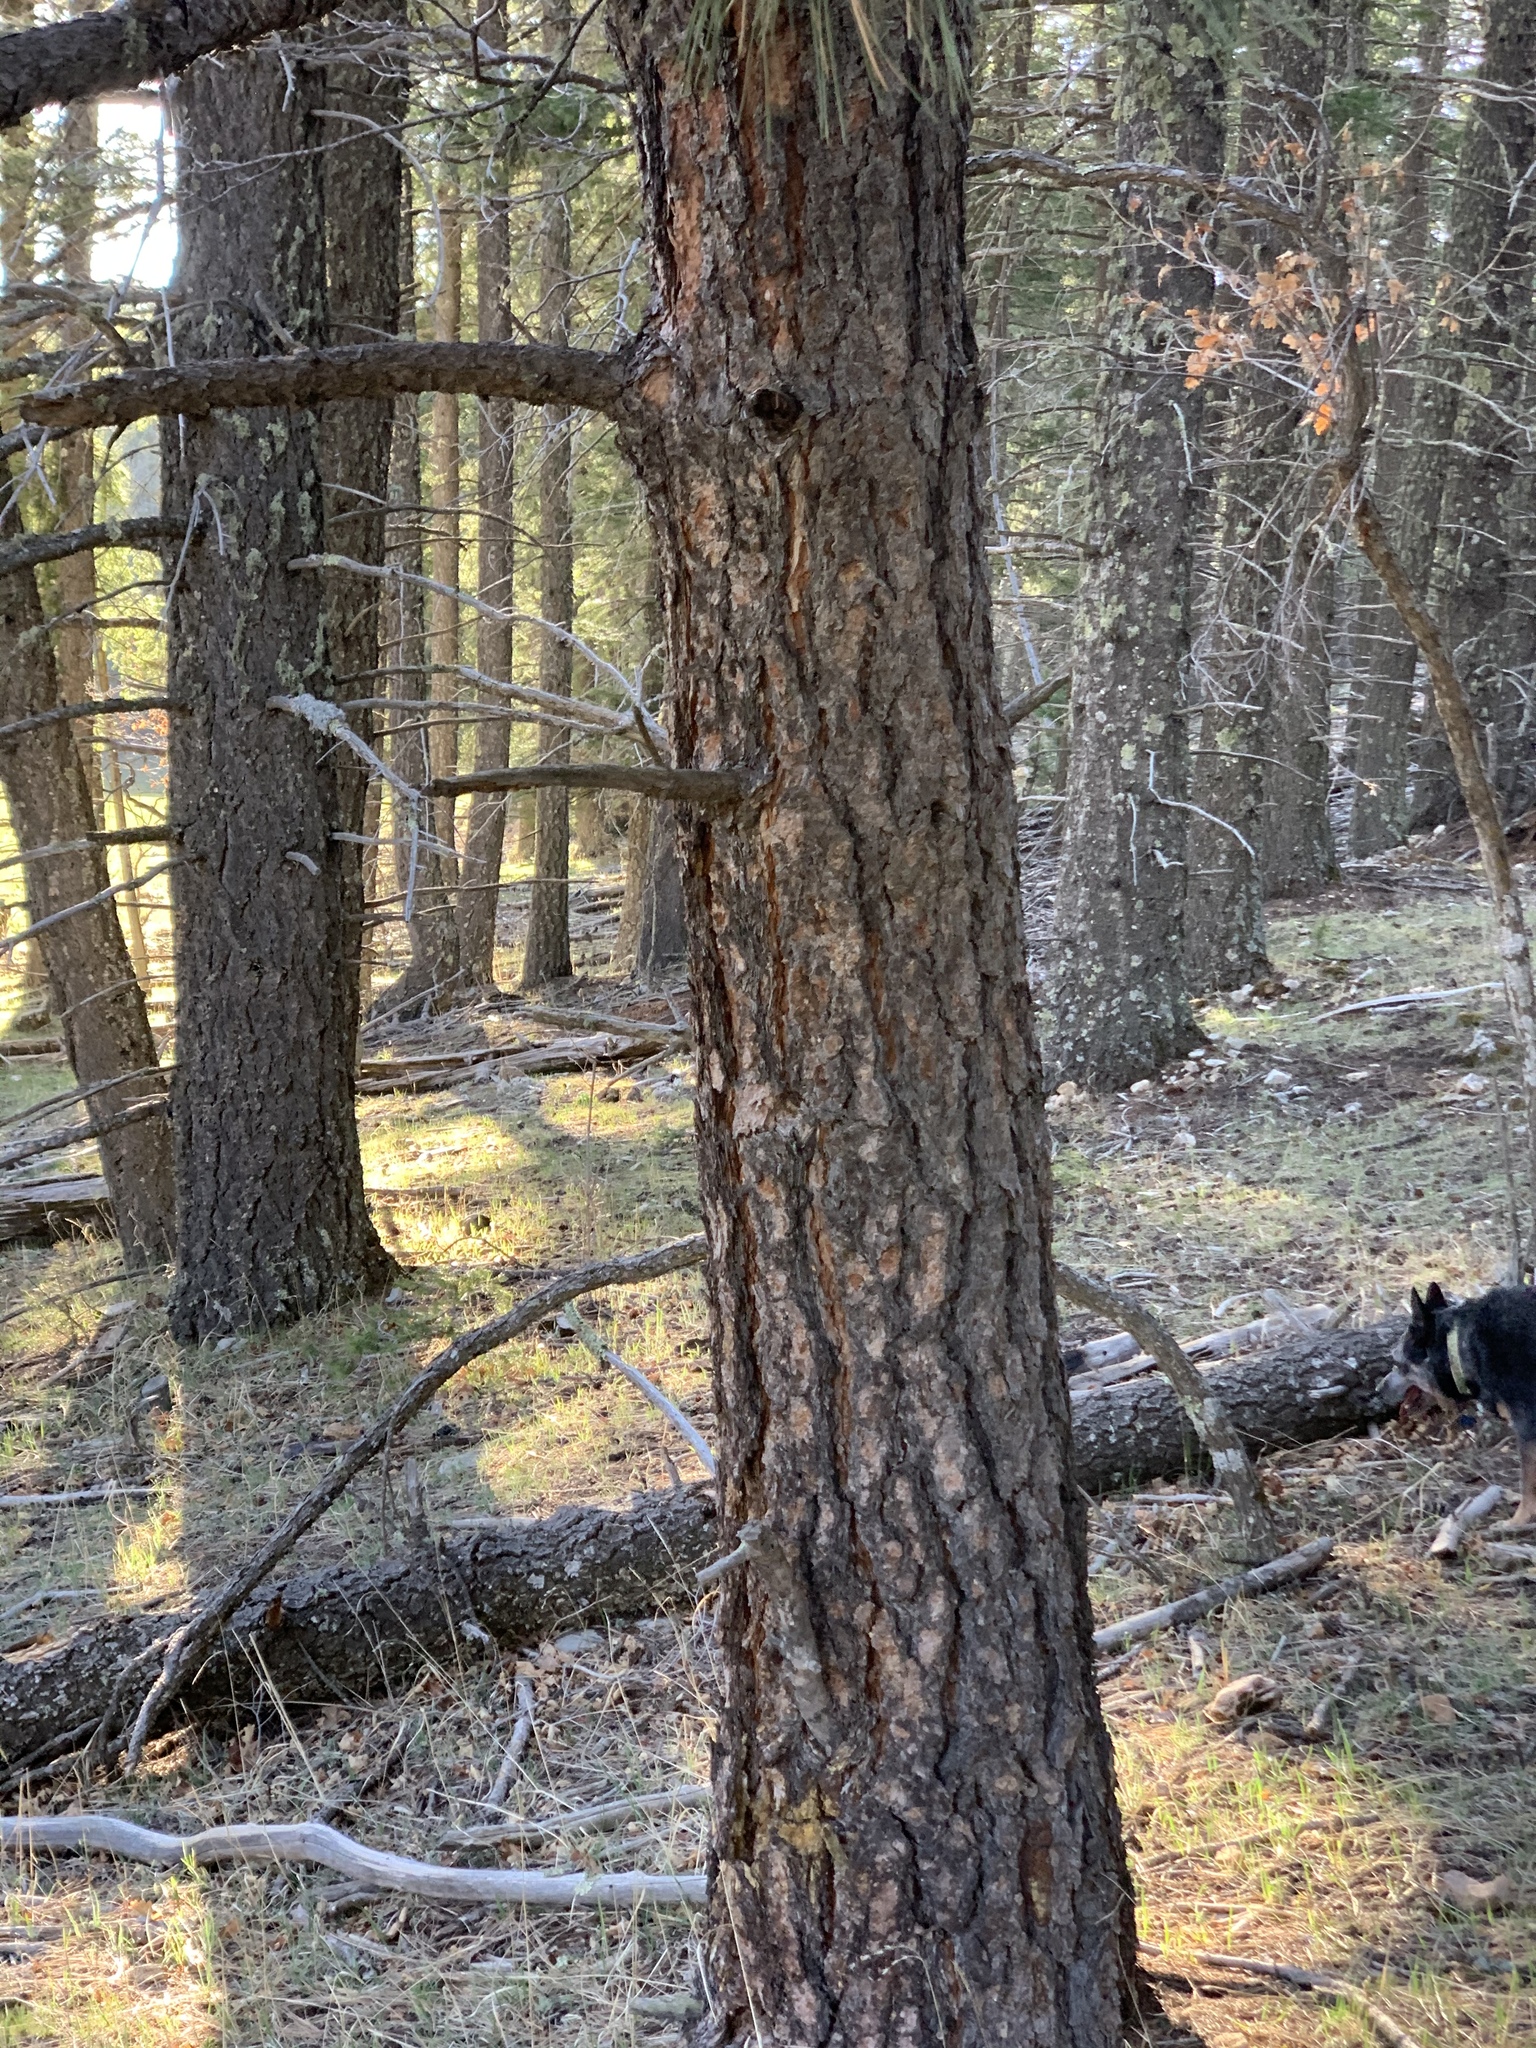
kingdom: Plantae
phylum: Tracheophyta
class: Pinopsida
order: Pinales
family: Pinaceae
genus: Pinus
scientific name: Pinus ponderosa
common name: Western yellow-pine
